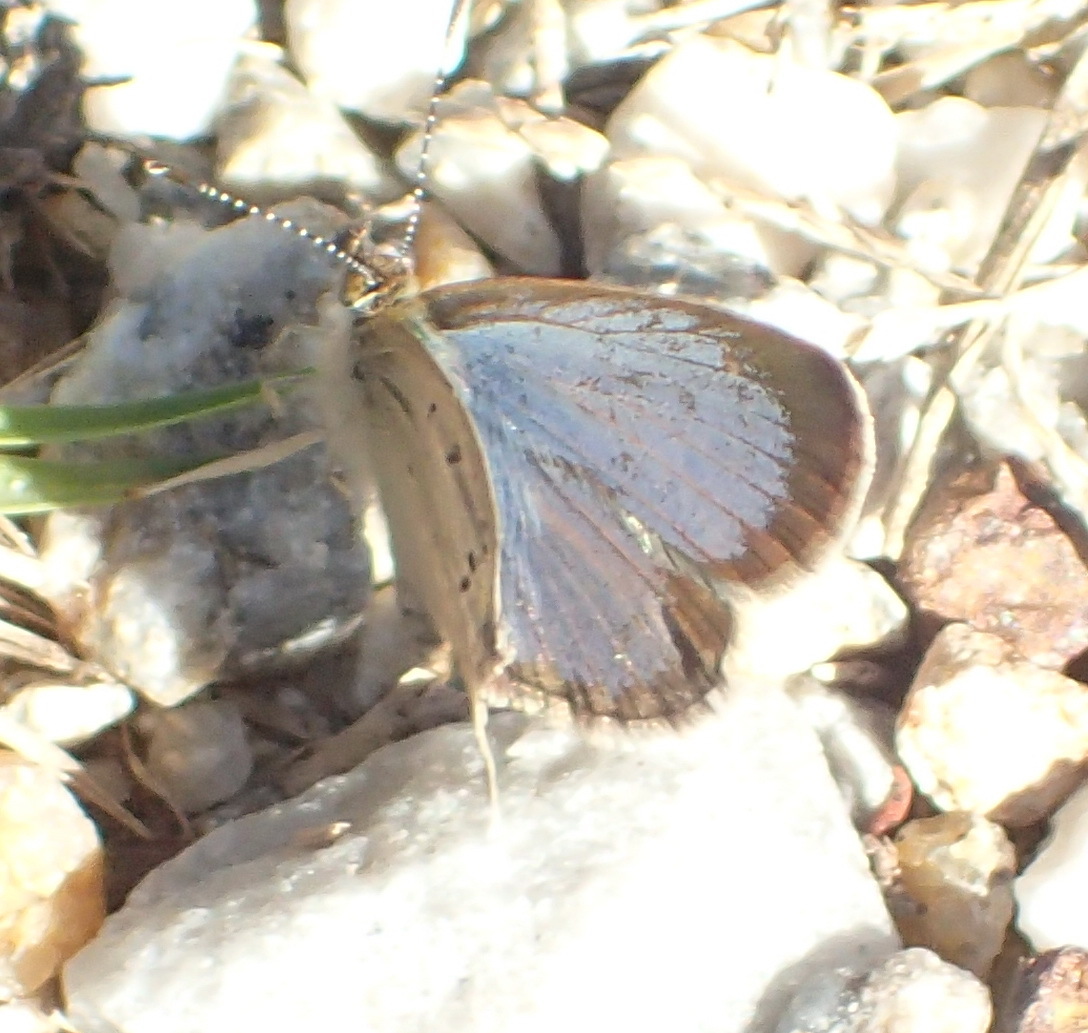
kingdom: Animalia
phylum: Arthropoda
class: Insecta
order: Lepidoptera
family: Lycaenidae
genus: Zizula
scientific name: Zizula hylax
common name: Gaika blue
